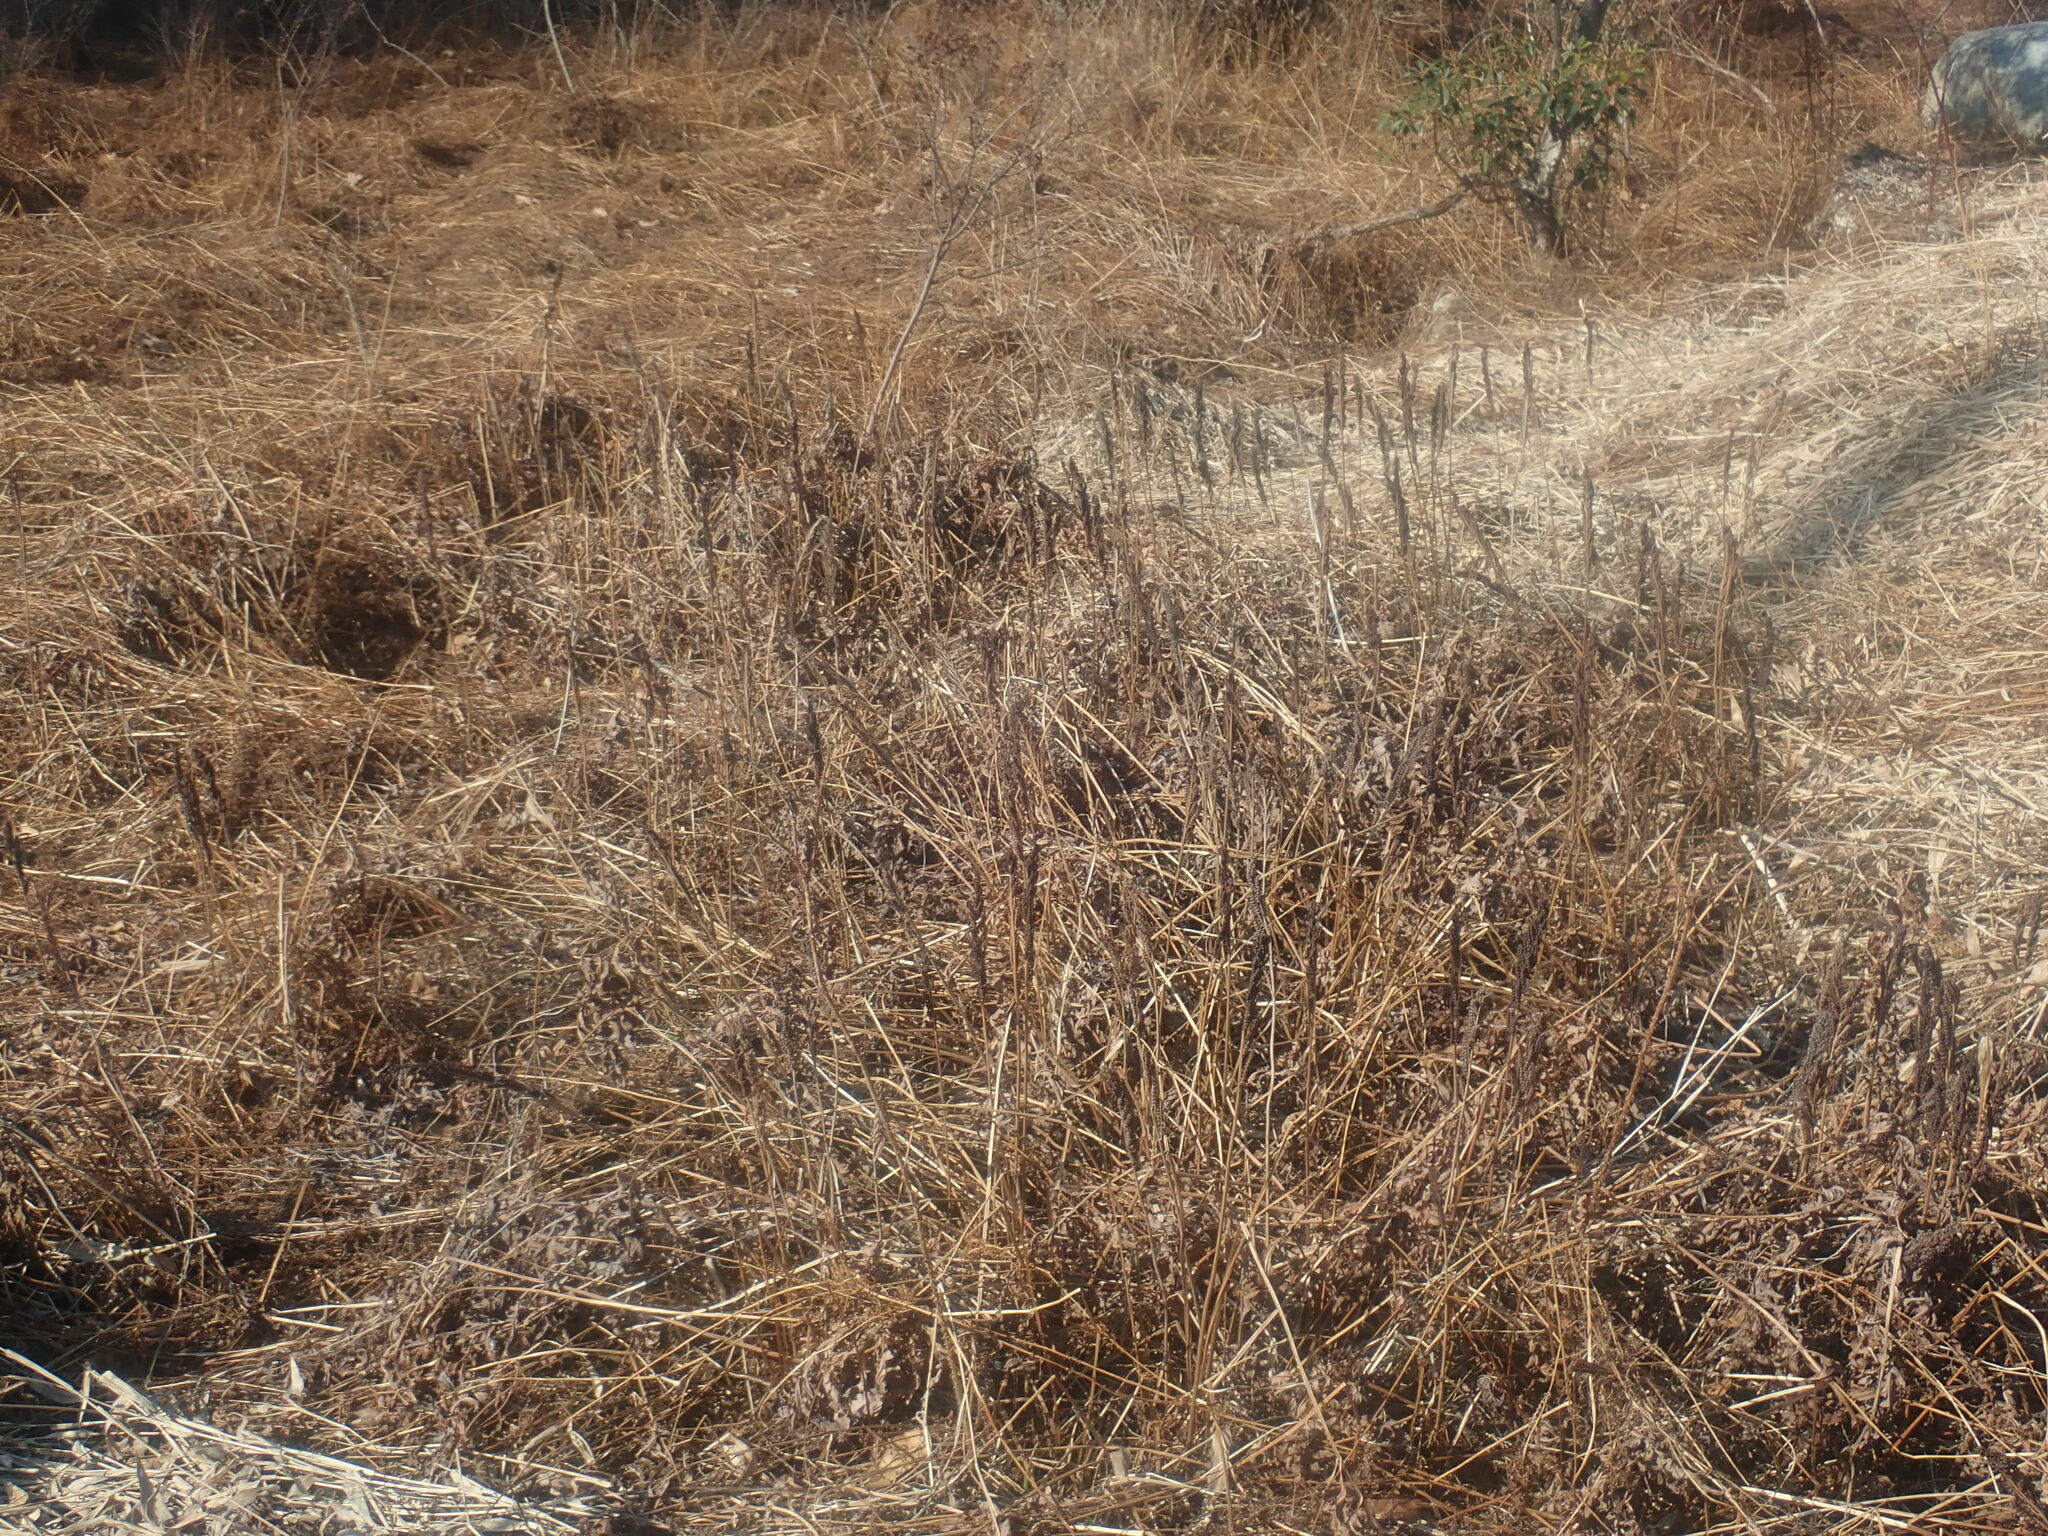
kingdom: Plantae
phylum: Tracheophyta
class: Polypodiopsida
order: Polypodiales
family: Onocleaceae
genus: Onoclea
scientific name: Onoclea sensibilis
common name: Sensitive fern
